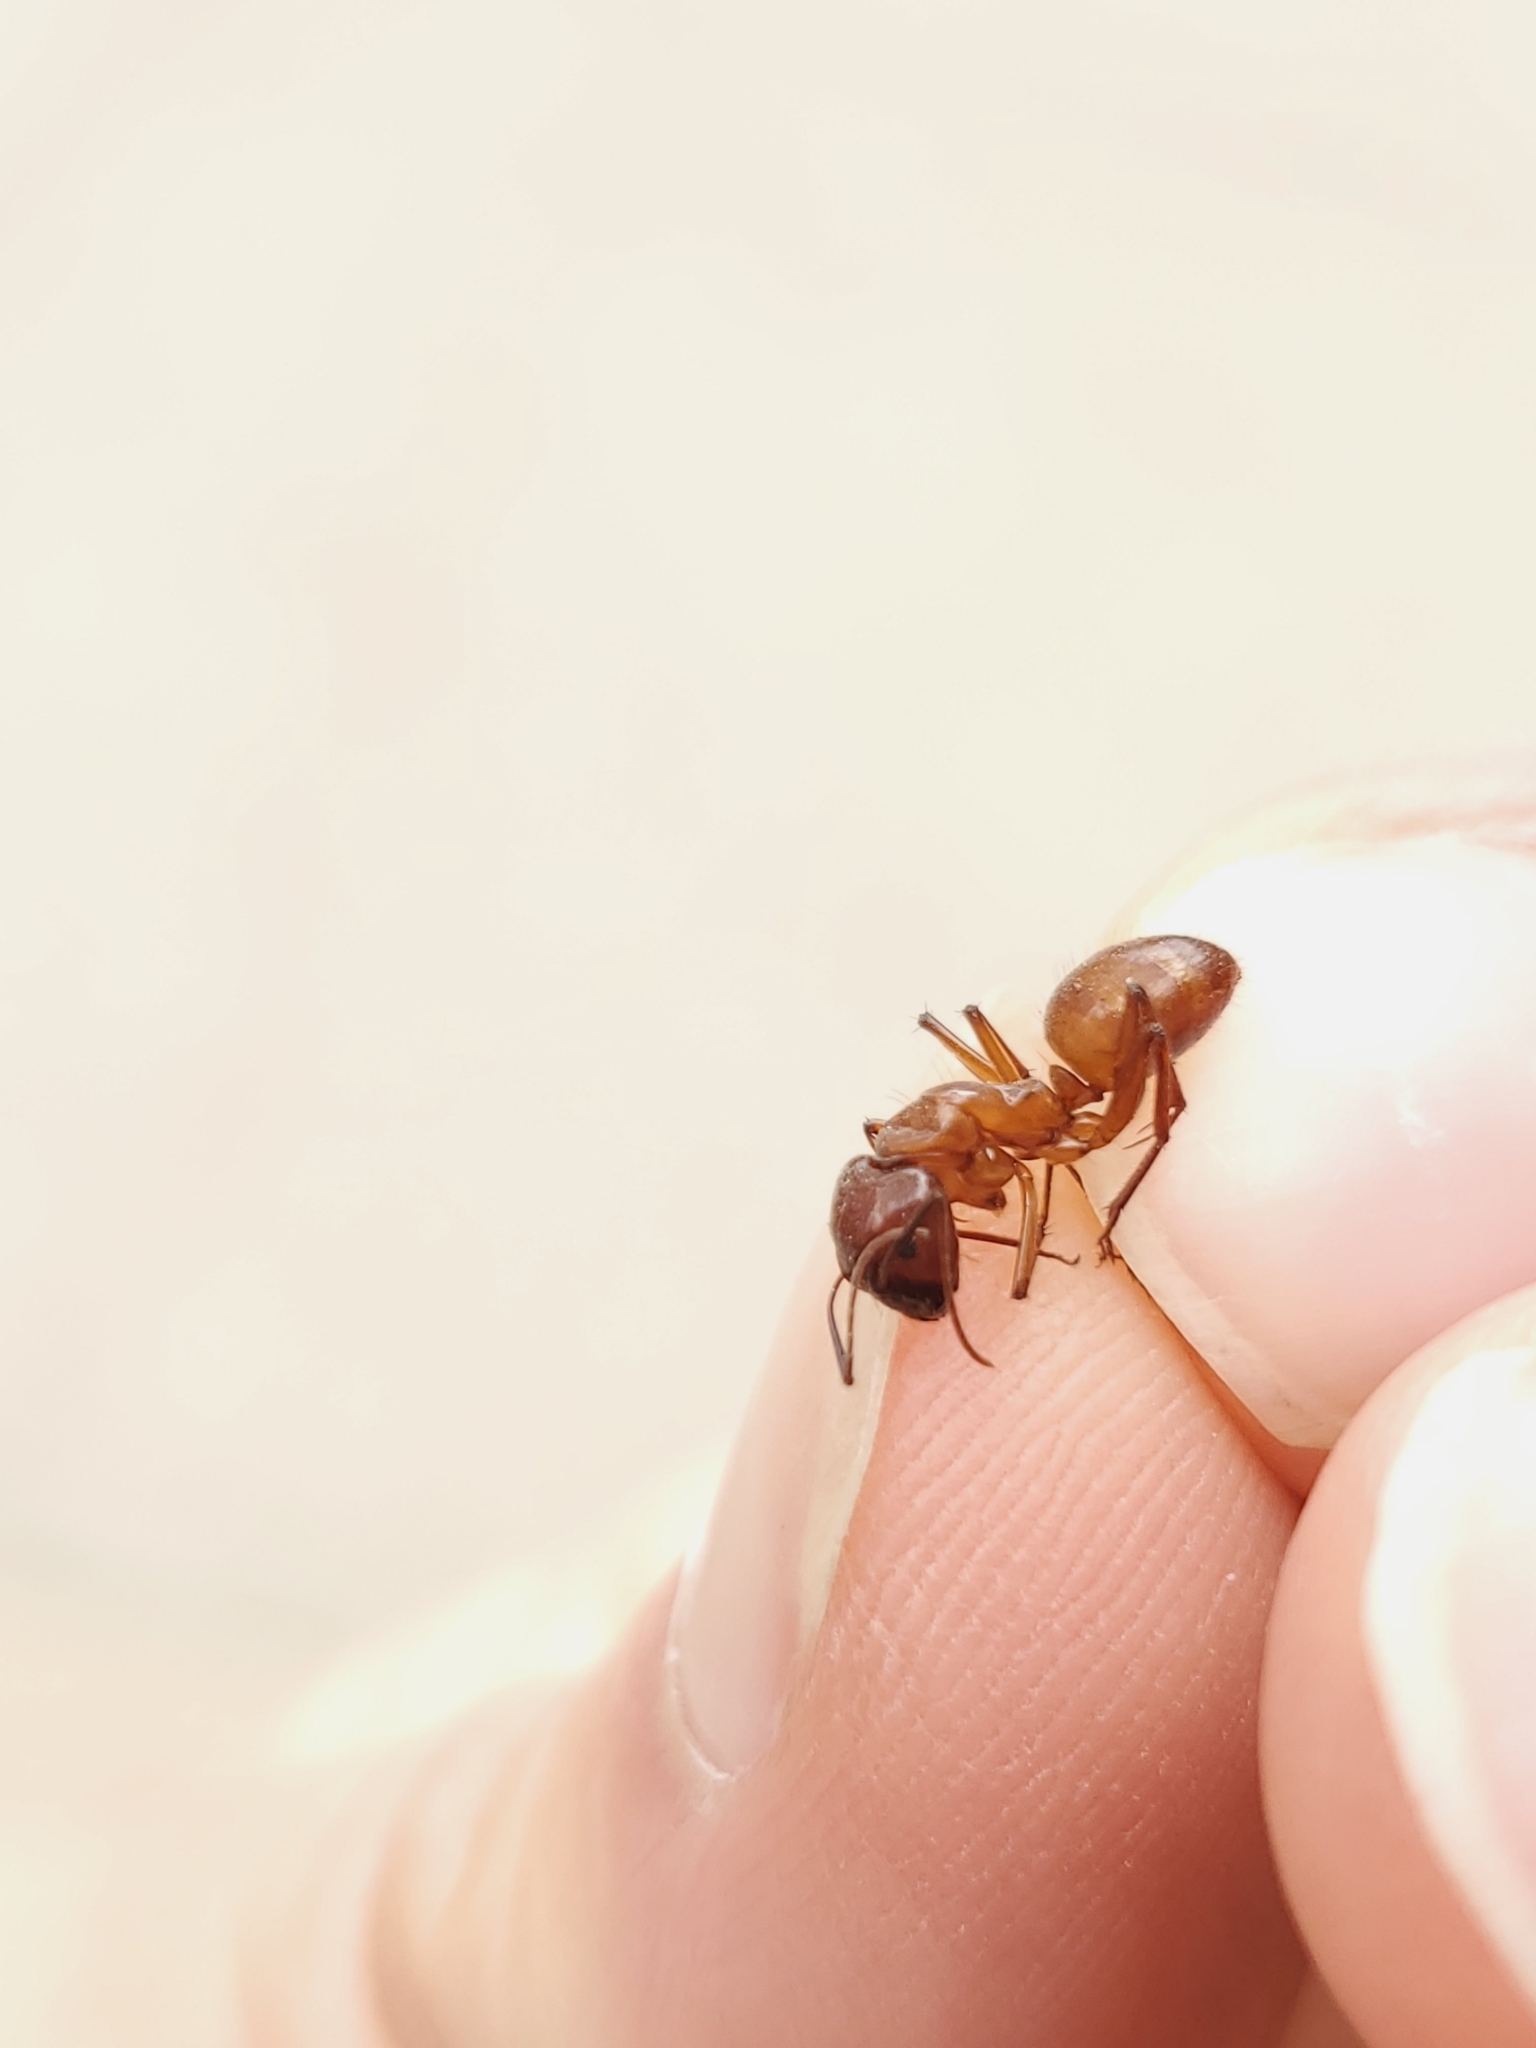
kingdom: Animalia
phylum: Arthropoda
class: Insecta
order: Hymenoptera
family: Formicidae
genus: Camponotus
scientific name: Camponotus castaneus
